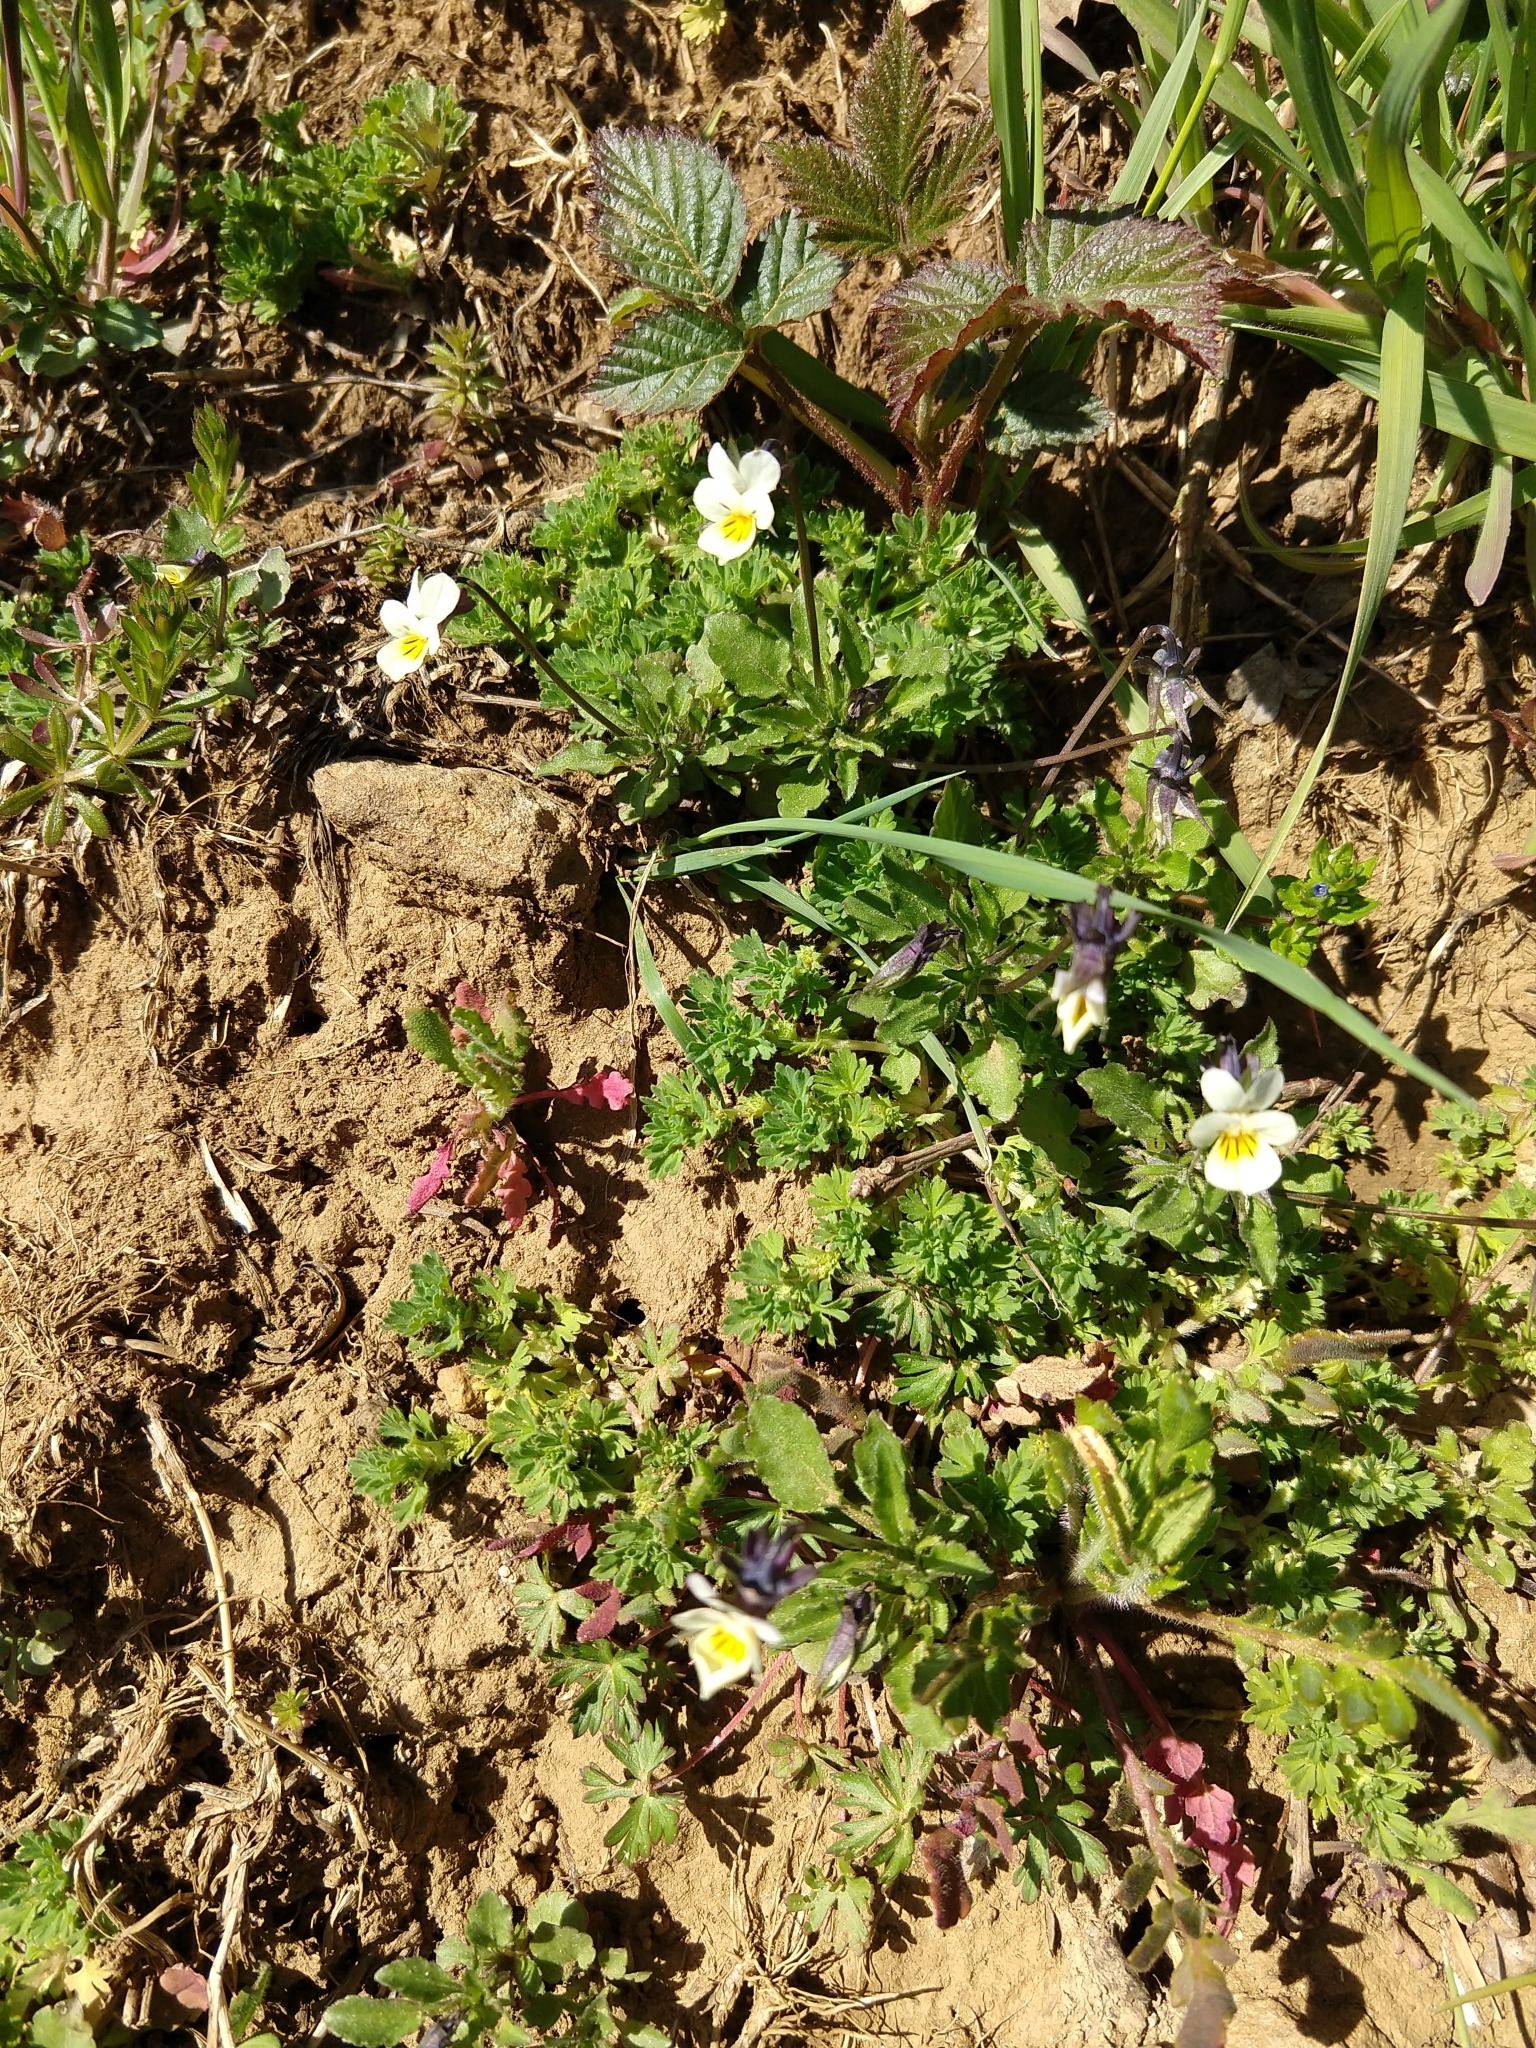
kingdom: Plantae
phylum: Tracheophyta
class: Magnoliopsida
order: Malpighiales
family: Violaceae
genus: Viola
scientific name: Viola arvensis
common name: Field pansy
